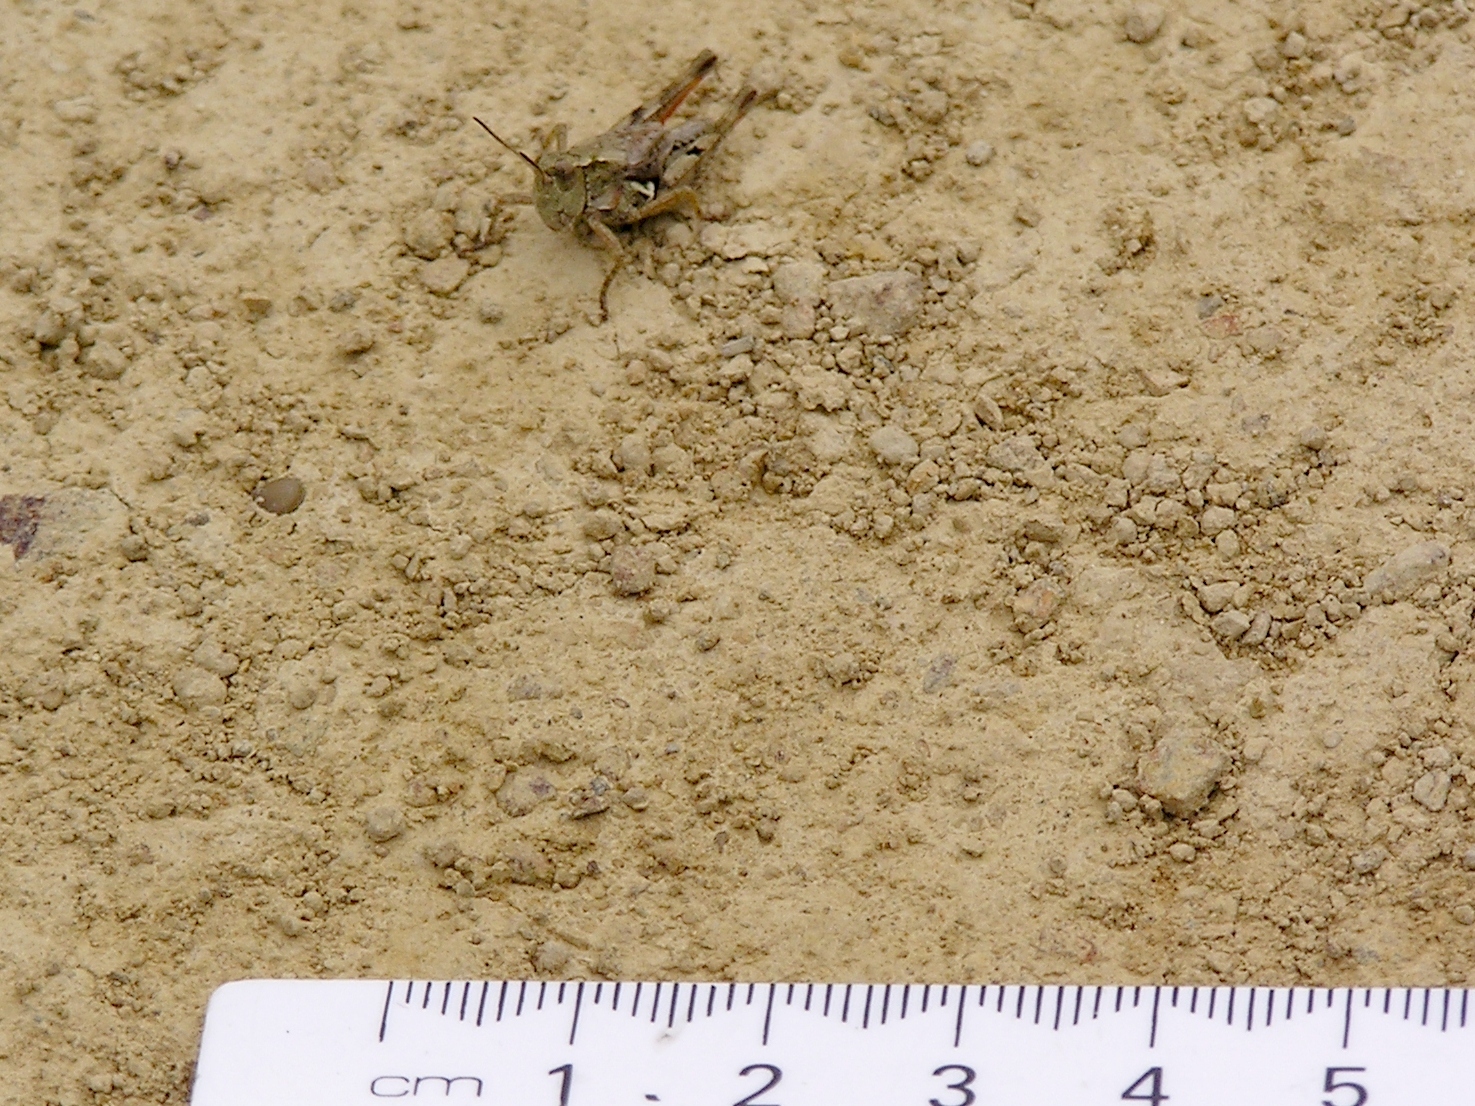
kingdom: Animalia
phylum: Arthropoda
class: Insecta
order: Orthoptera
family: Acrididae
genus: Phaulacridium
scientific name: Phaulacridium marginale
